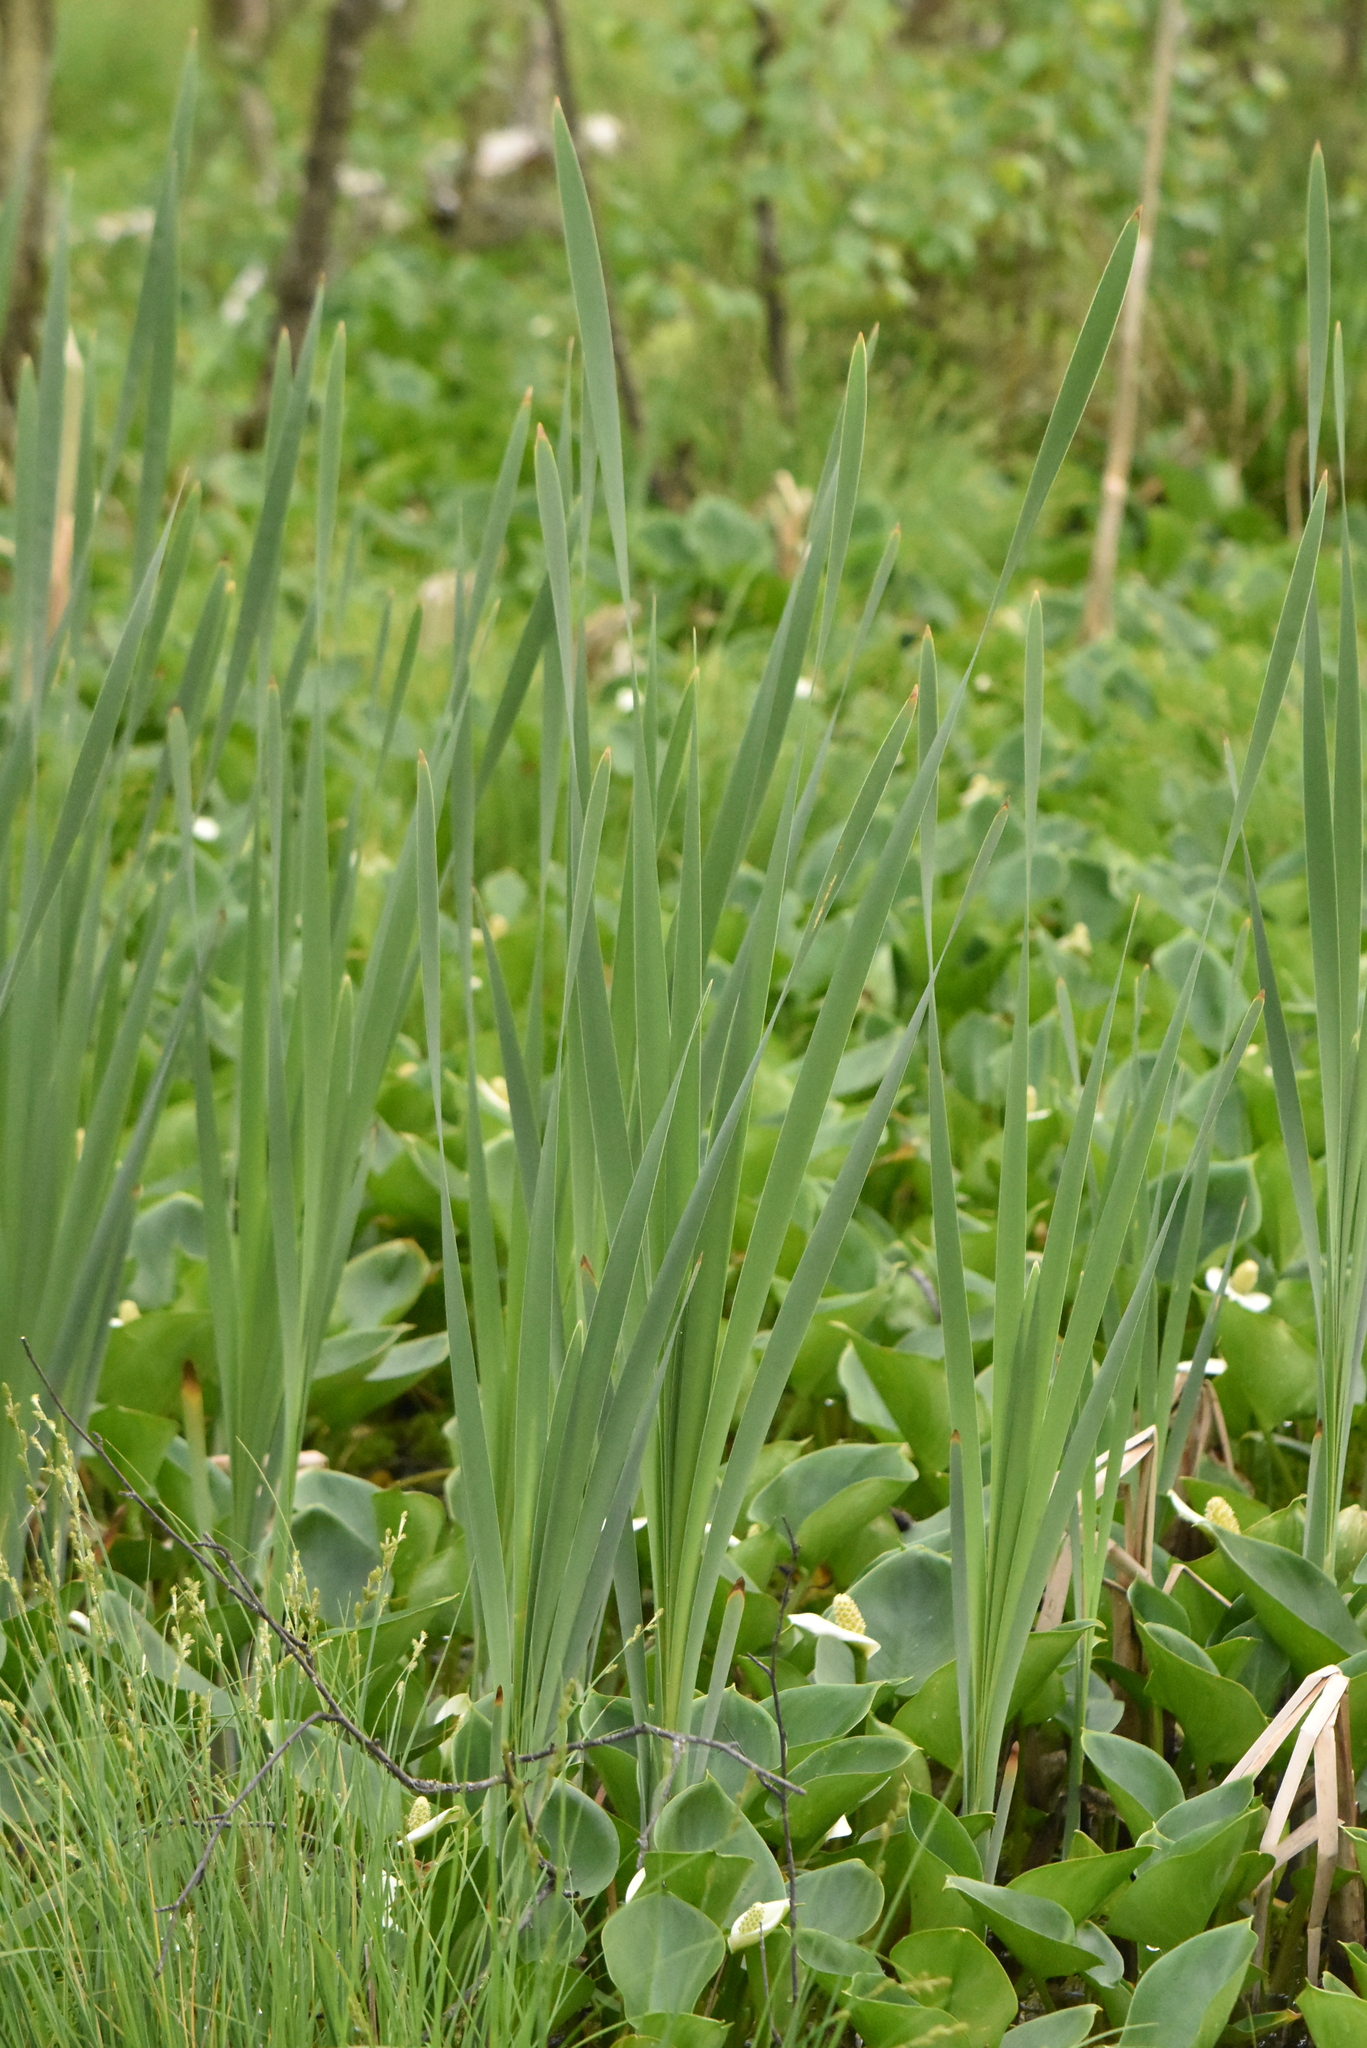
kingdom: Plantae
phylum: Tracheophyta
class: Liliopsida
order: Poales
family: Typhaceae
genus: Typha
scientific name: Typha latifolia
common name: Broadleaf cattail
